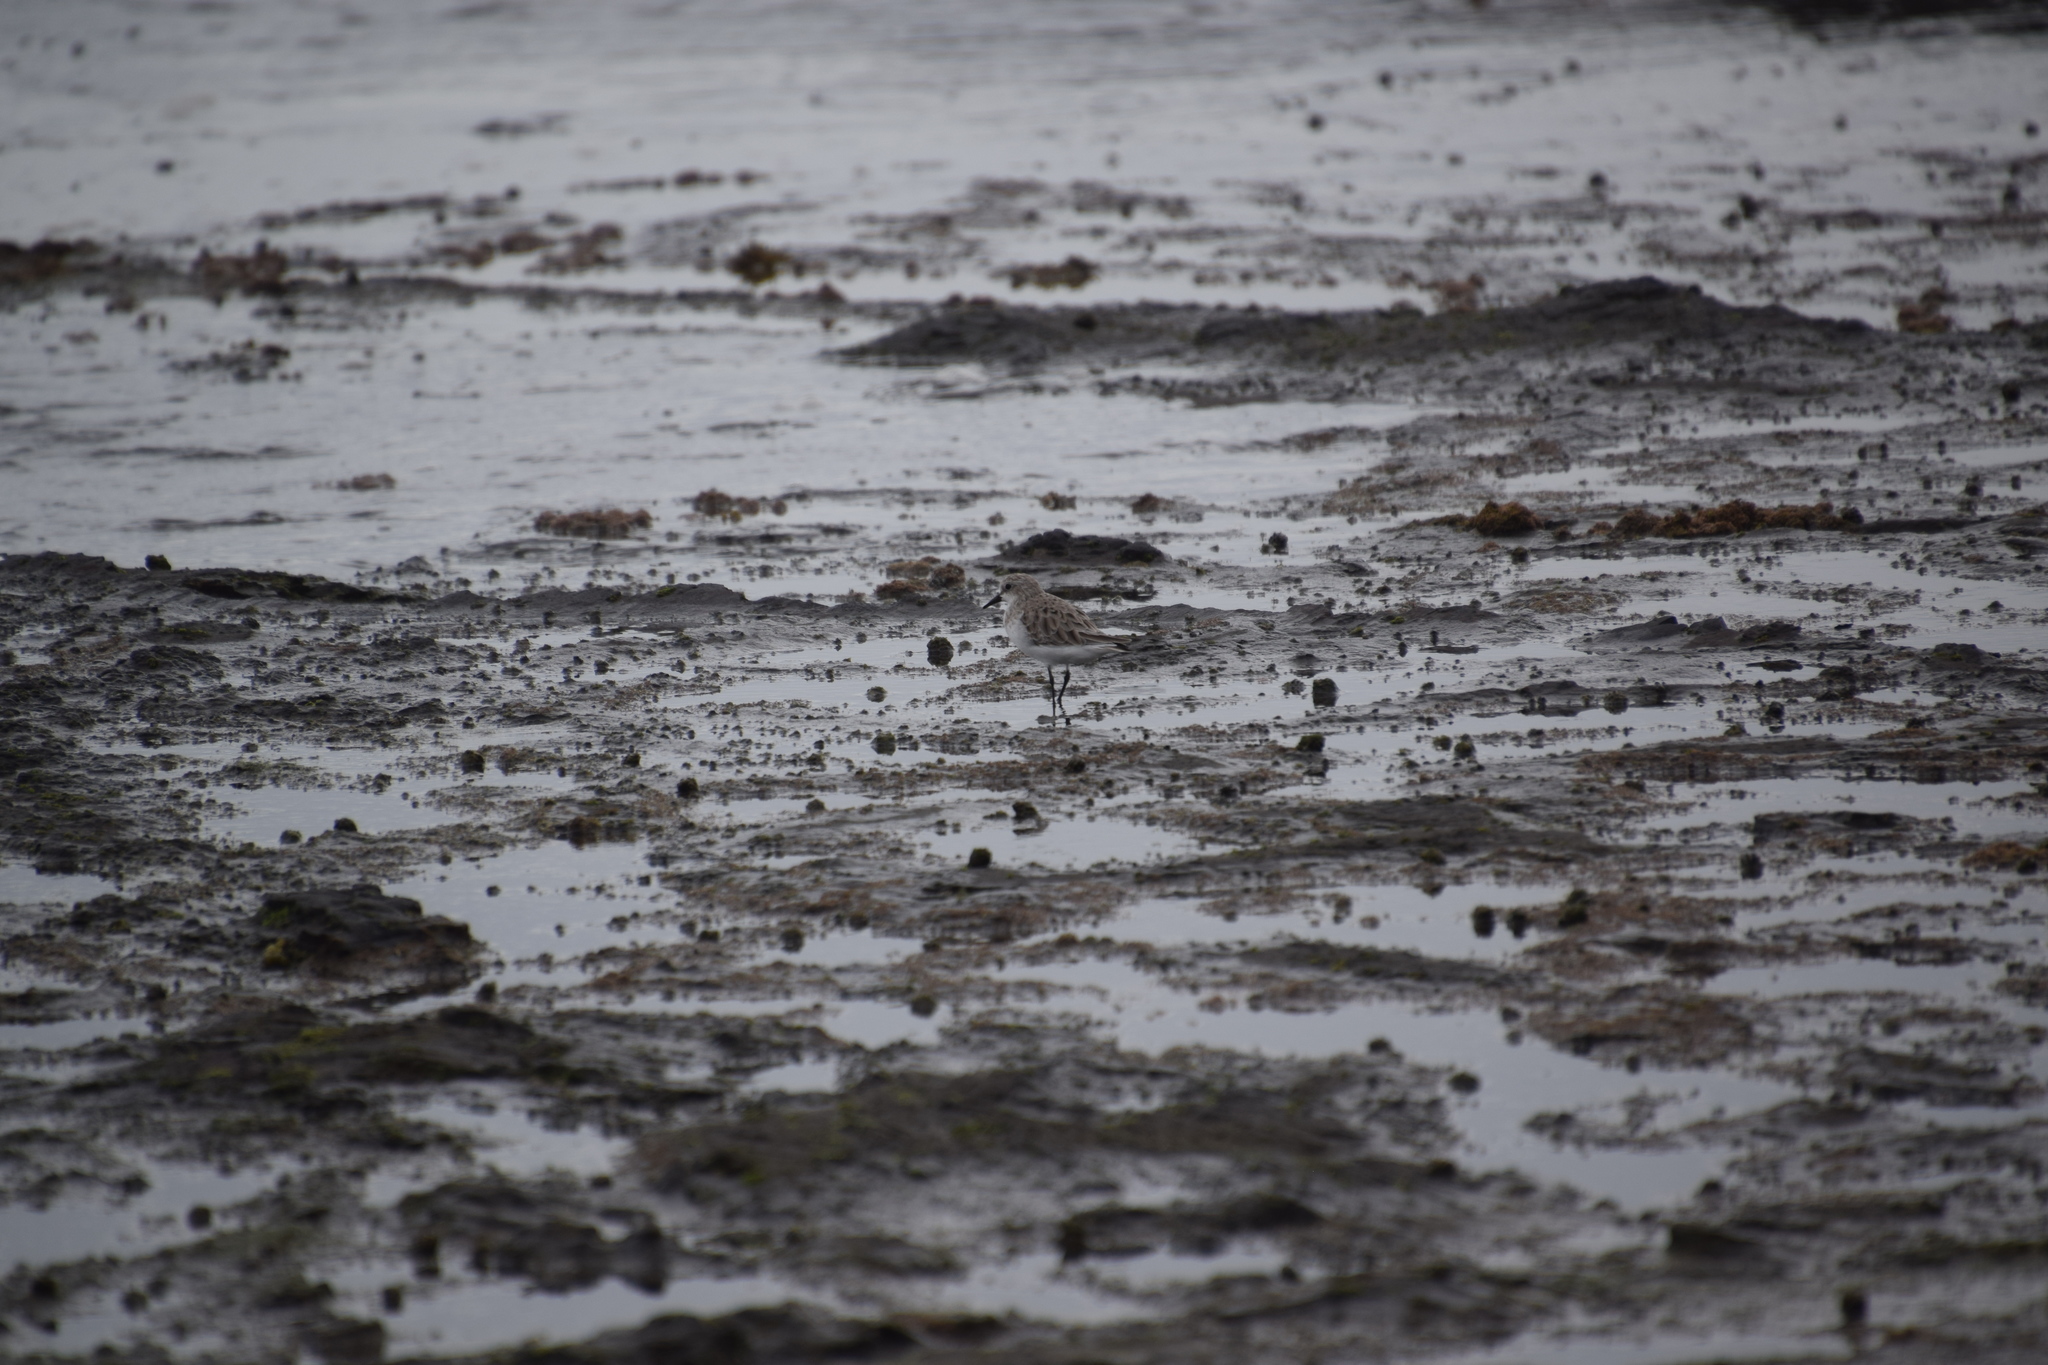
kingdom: Animalia
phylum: Chordata
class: Aves
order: Charadriiformes
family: Scolopacidae
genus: Calidris
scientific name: Calidris ruficollis
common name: Red-necked stint
